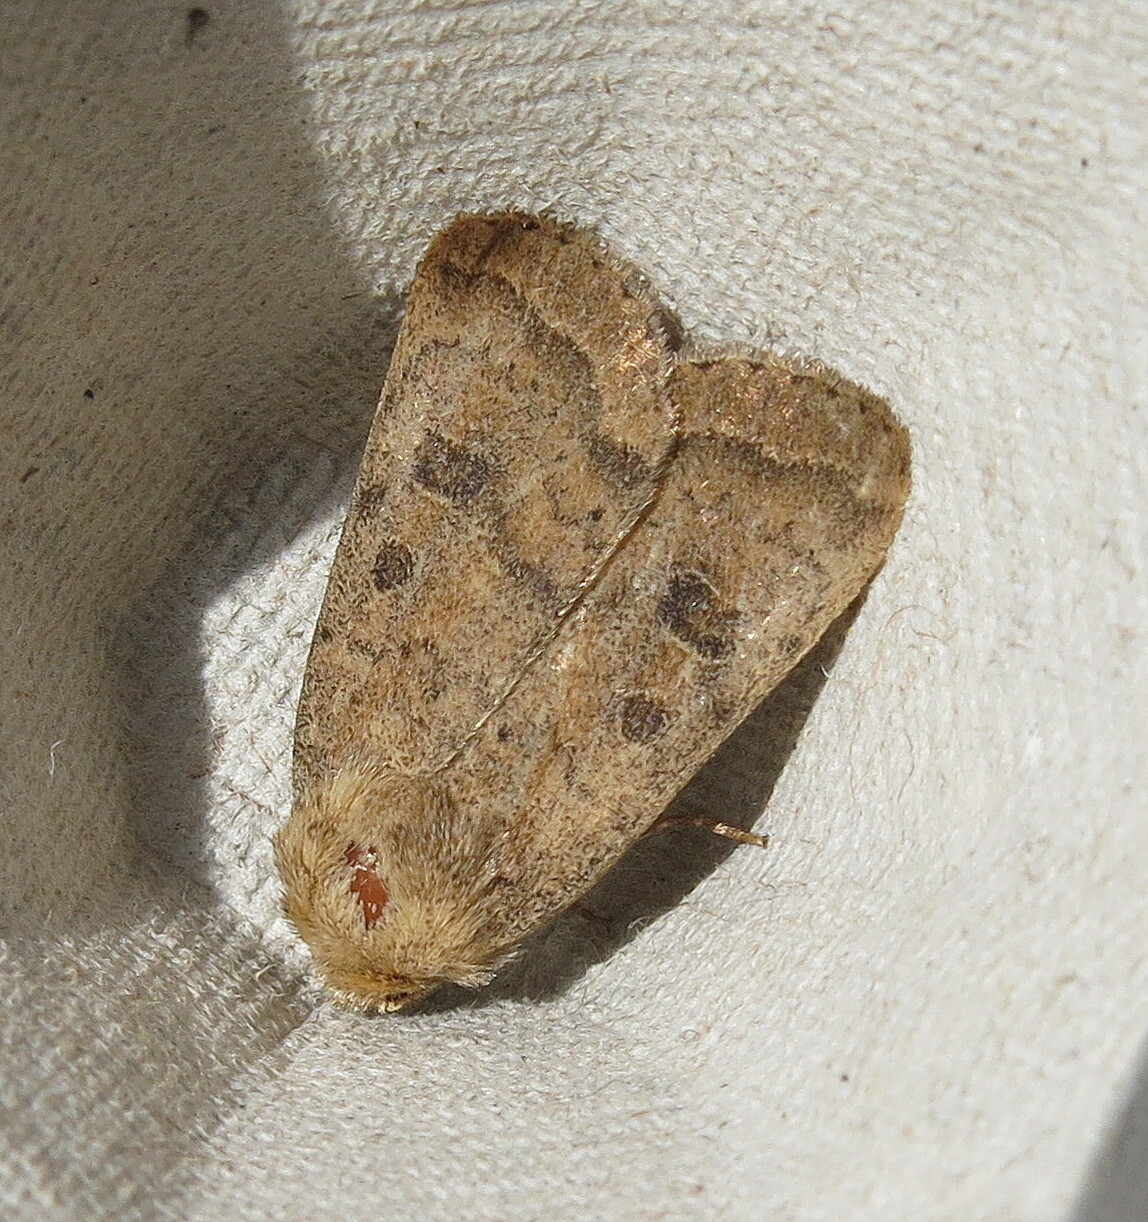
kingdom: Animalia
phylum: Arthropoda
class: Insecta
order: Lepidoptera
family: Noctuidae
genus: Hoplodrina
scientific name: Hoplodrina octogenaria
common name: Uncertain
